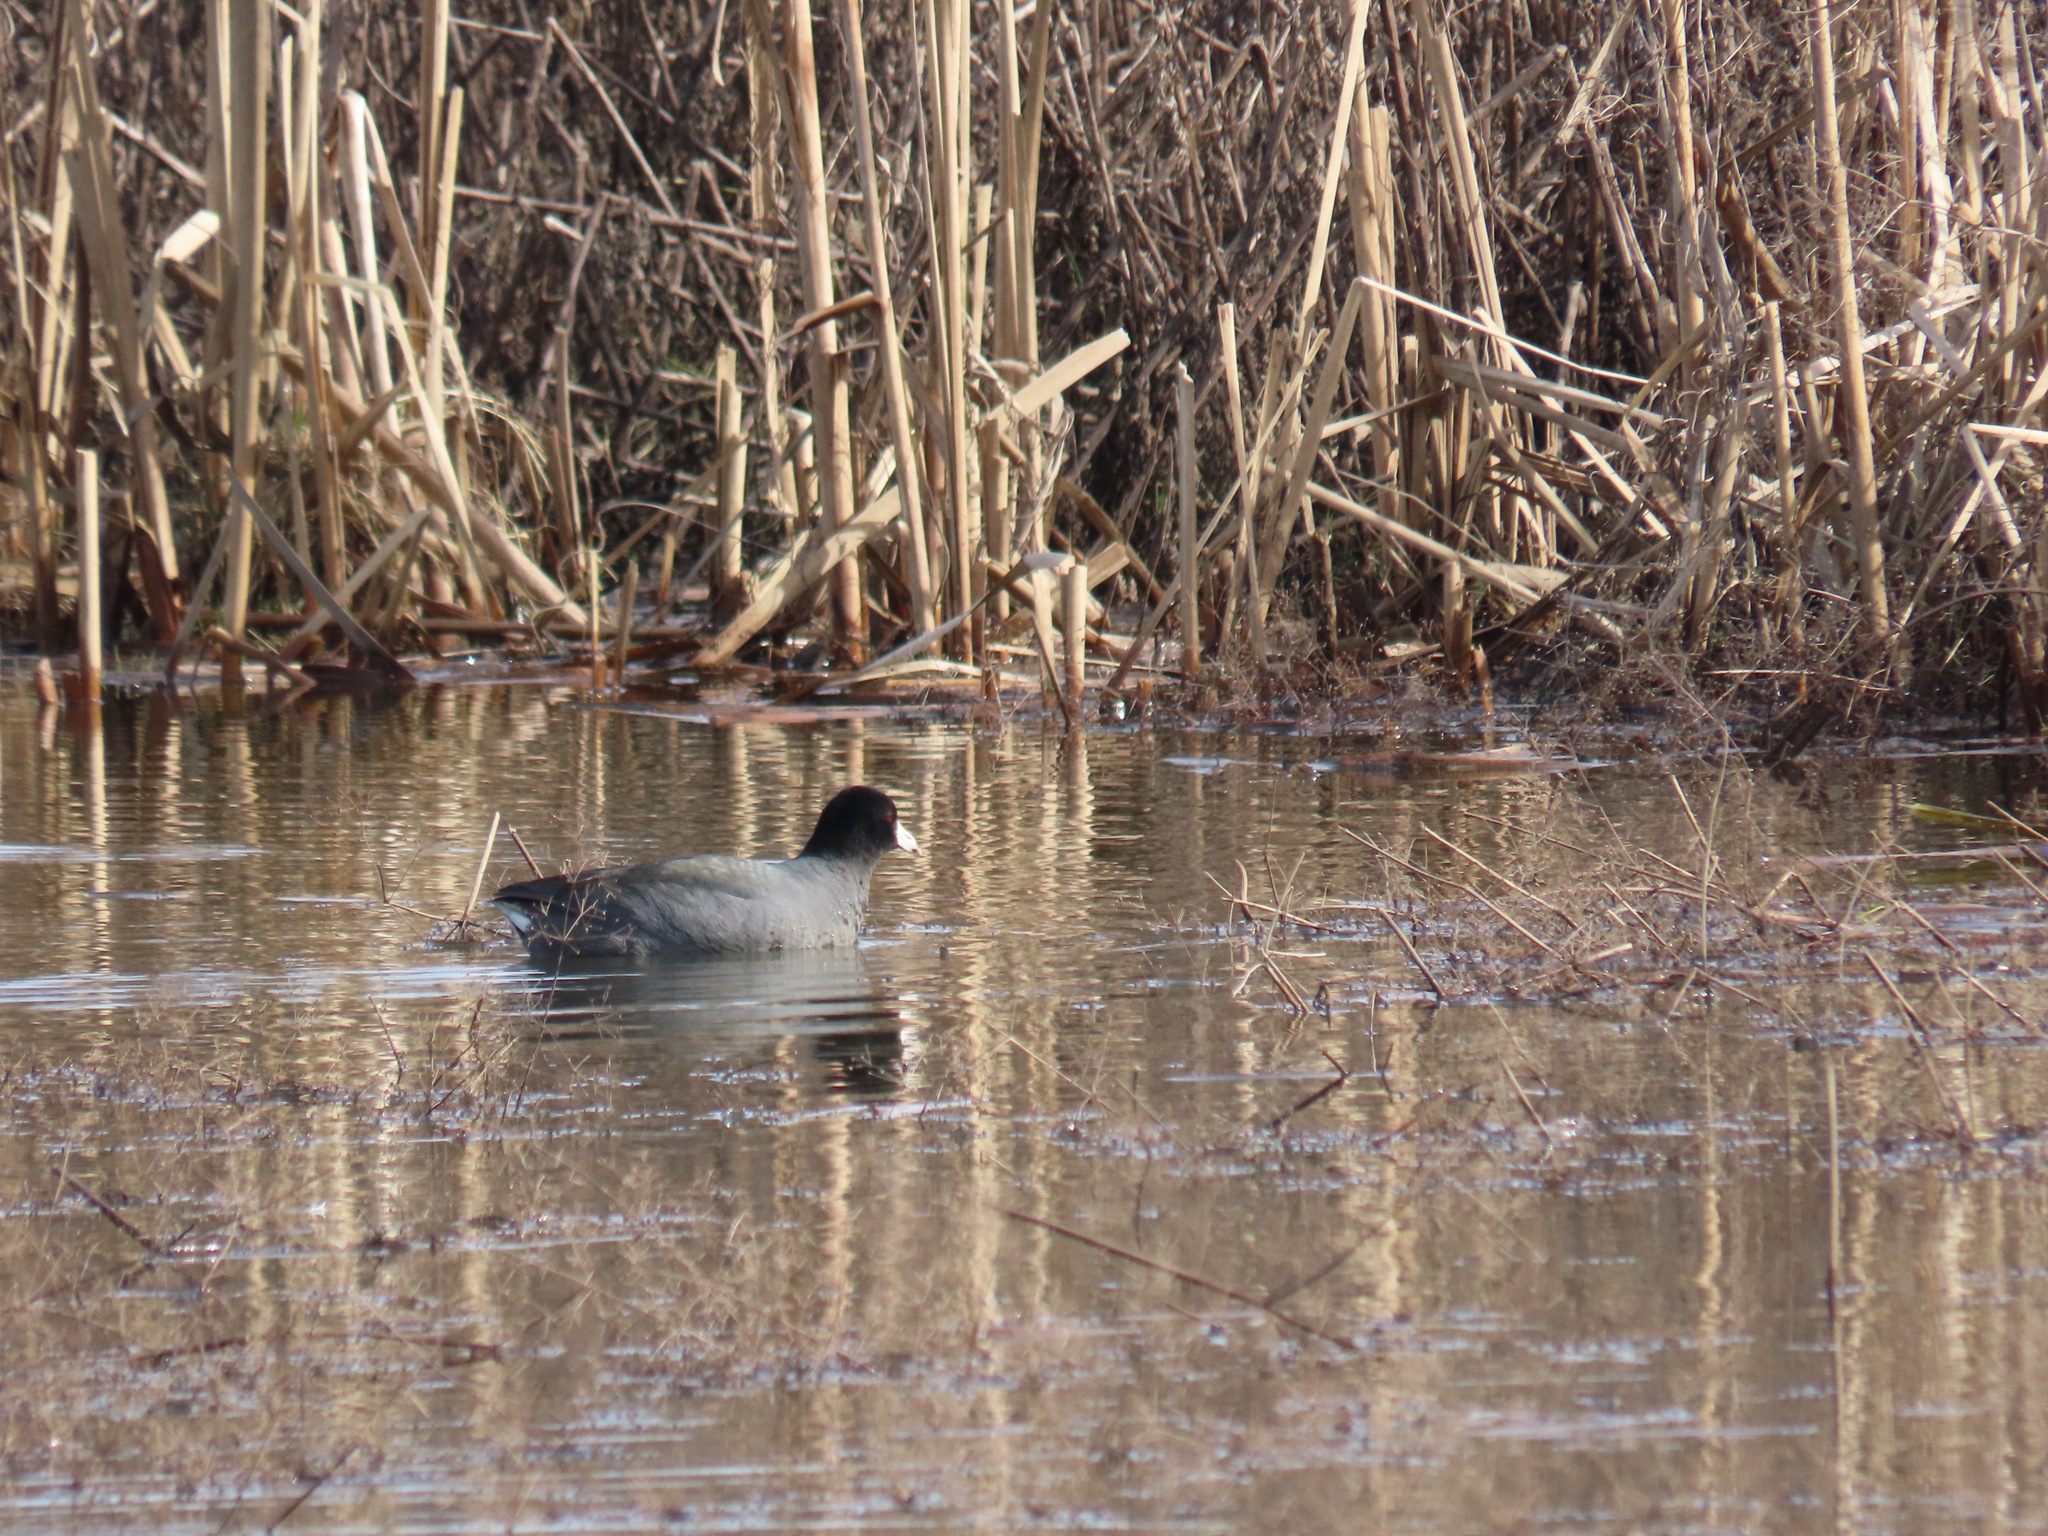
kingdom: Animalia
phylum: Chordata
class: Aves
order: Gruiformes
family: Rallidae
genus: Fulica
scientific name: Fulica americana
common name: American coot
